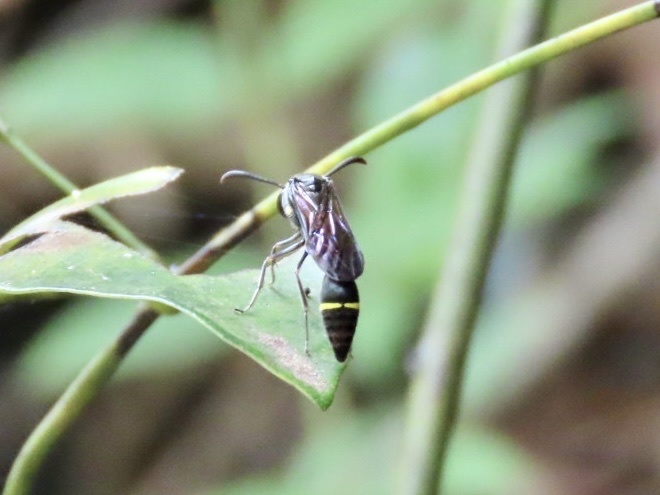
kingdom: Animalia
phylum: Arthropoda
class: Insecta
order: Hymenoptera
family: Vespidae
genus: Eustenogaster
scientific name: Eustenogaster nigra
